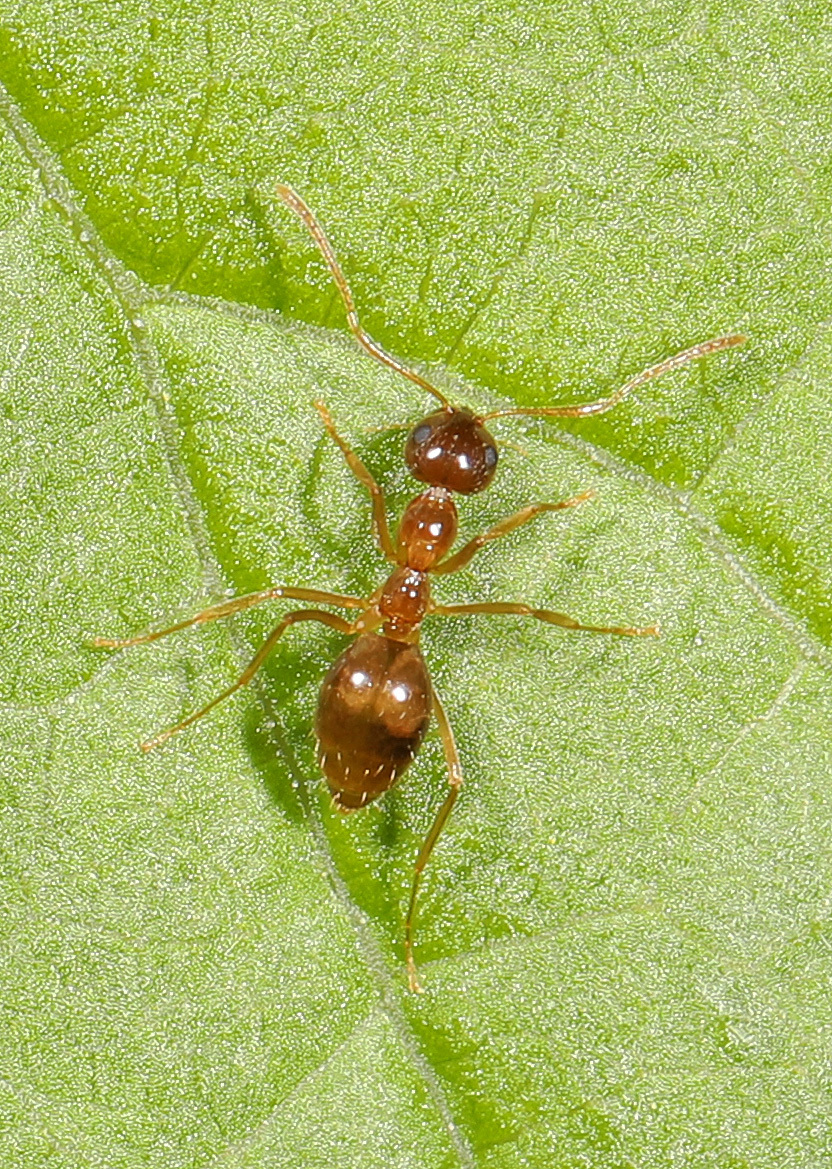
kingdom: Animalia
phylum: Arthropoda
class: Insecta
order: Hymenoptera
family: Formicidae
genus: Prenolepis
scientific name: Prenolepis imparis
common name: Small honey ant
